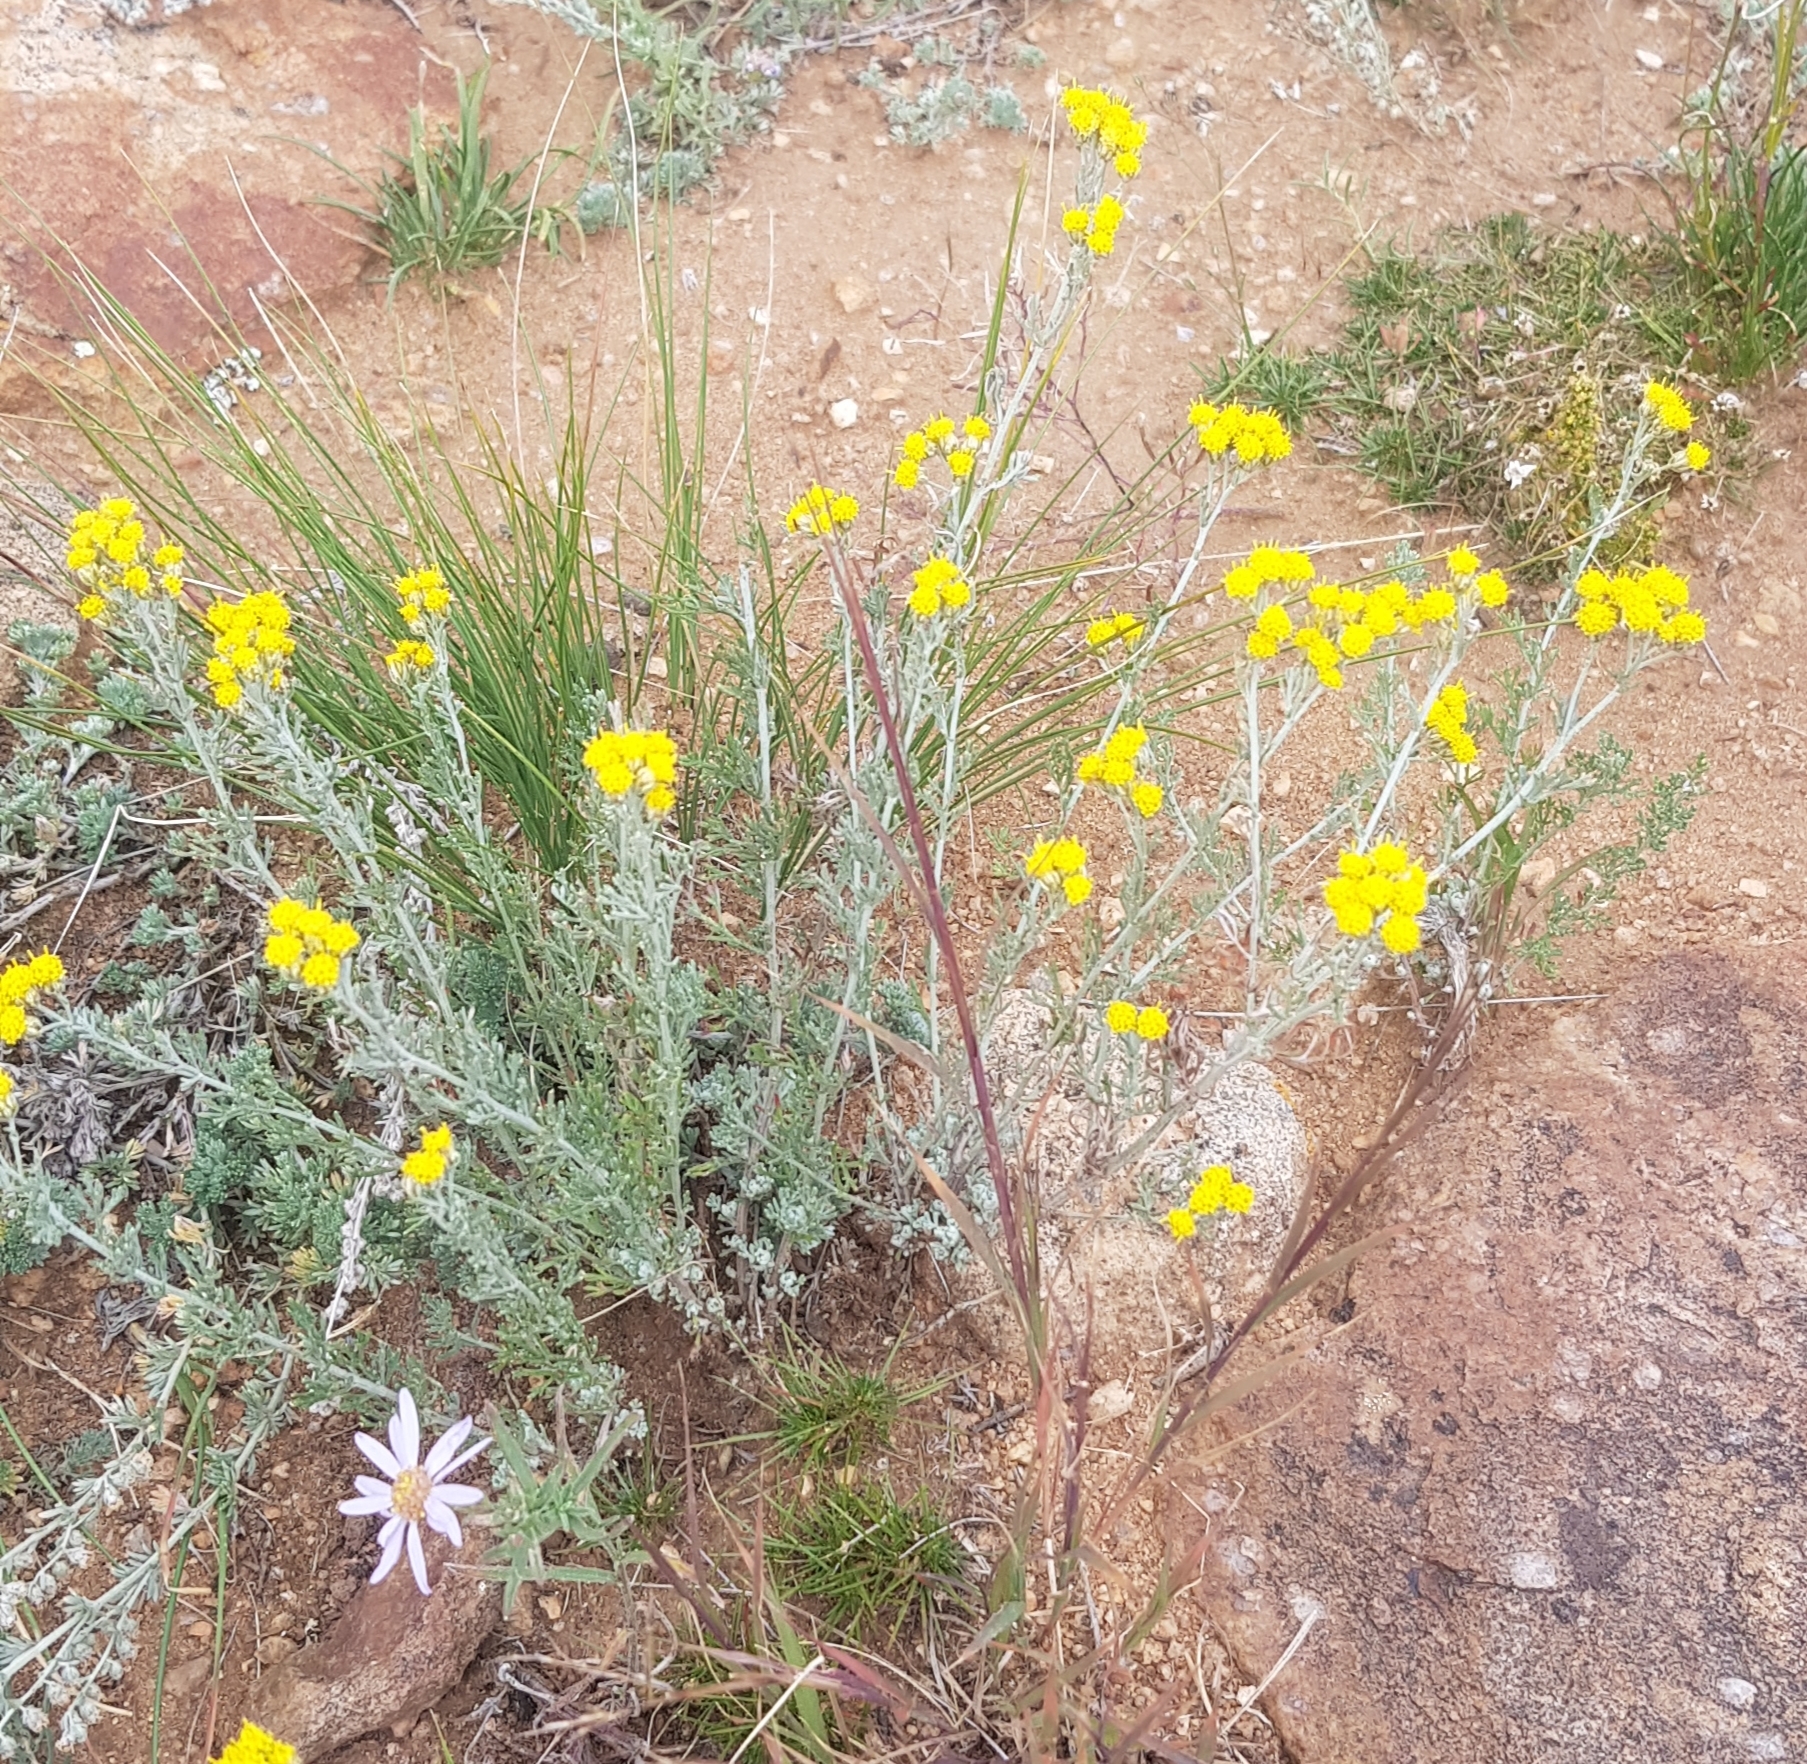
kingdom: Plantae
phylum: Tracheophyta
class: Magnoliopsida
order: Asterales
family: Asteraceae
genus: Ajania
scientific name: Ajania achilleoides
